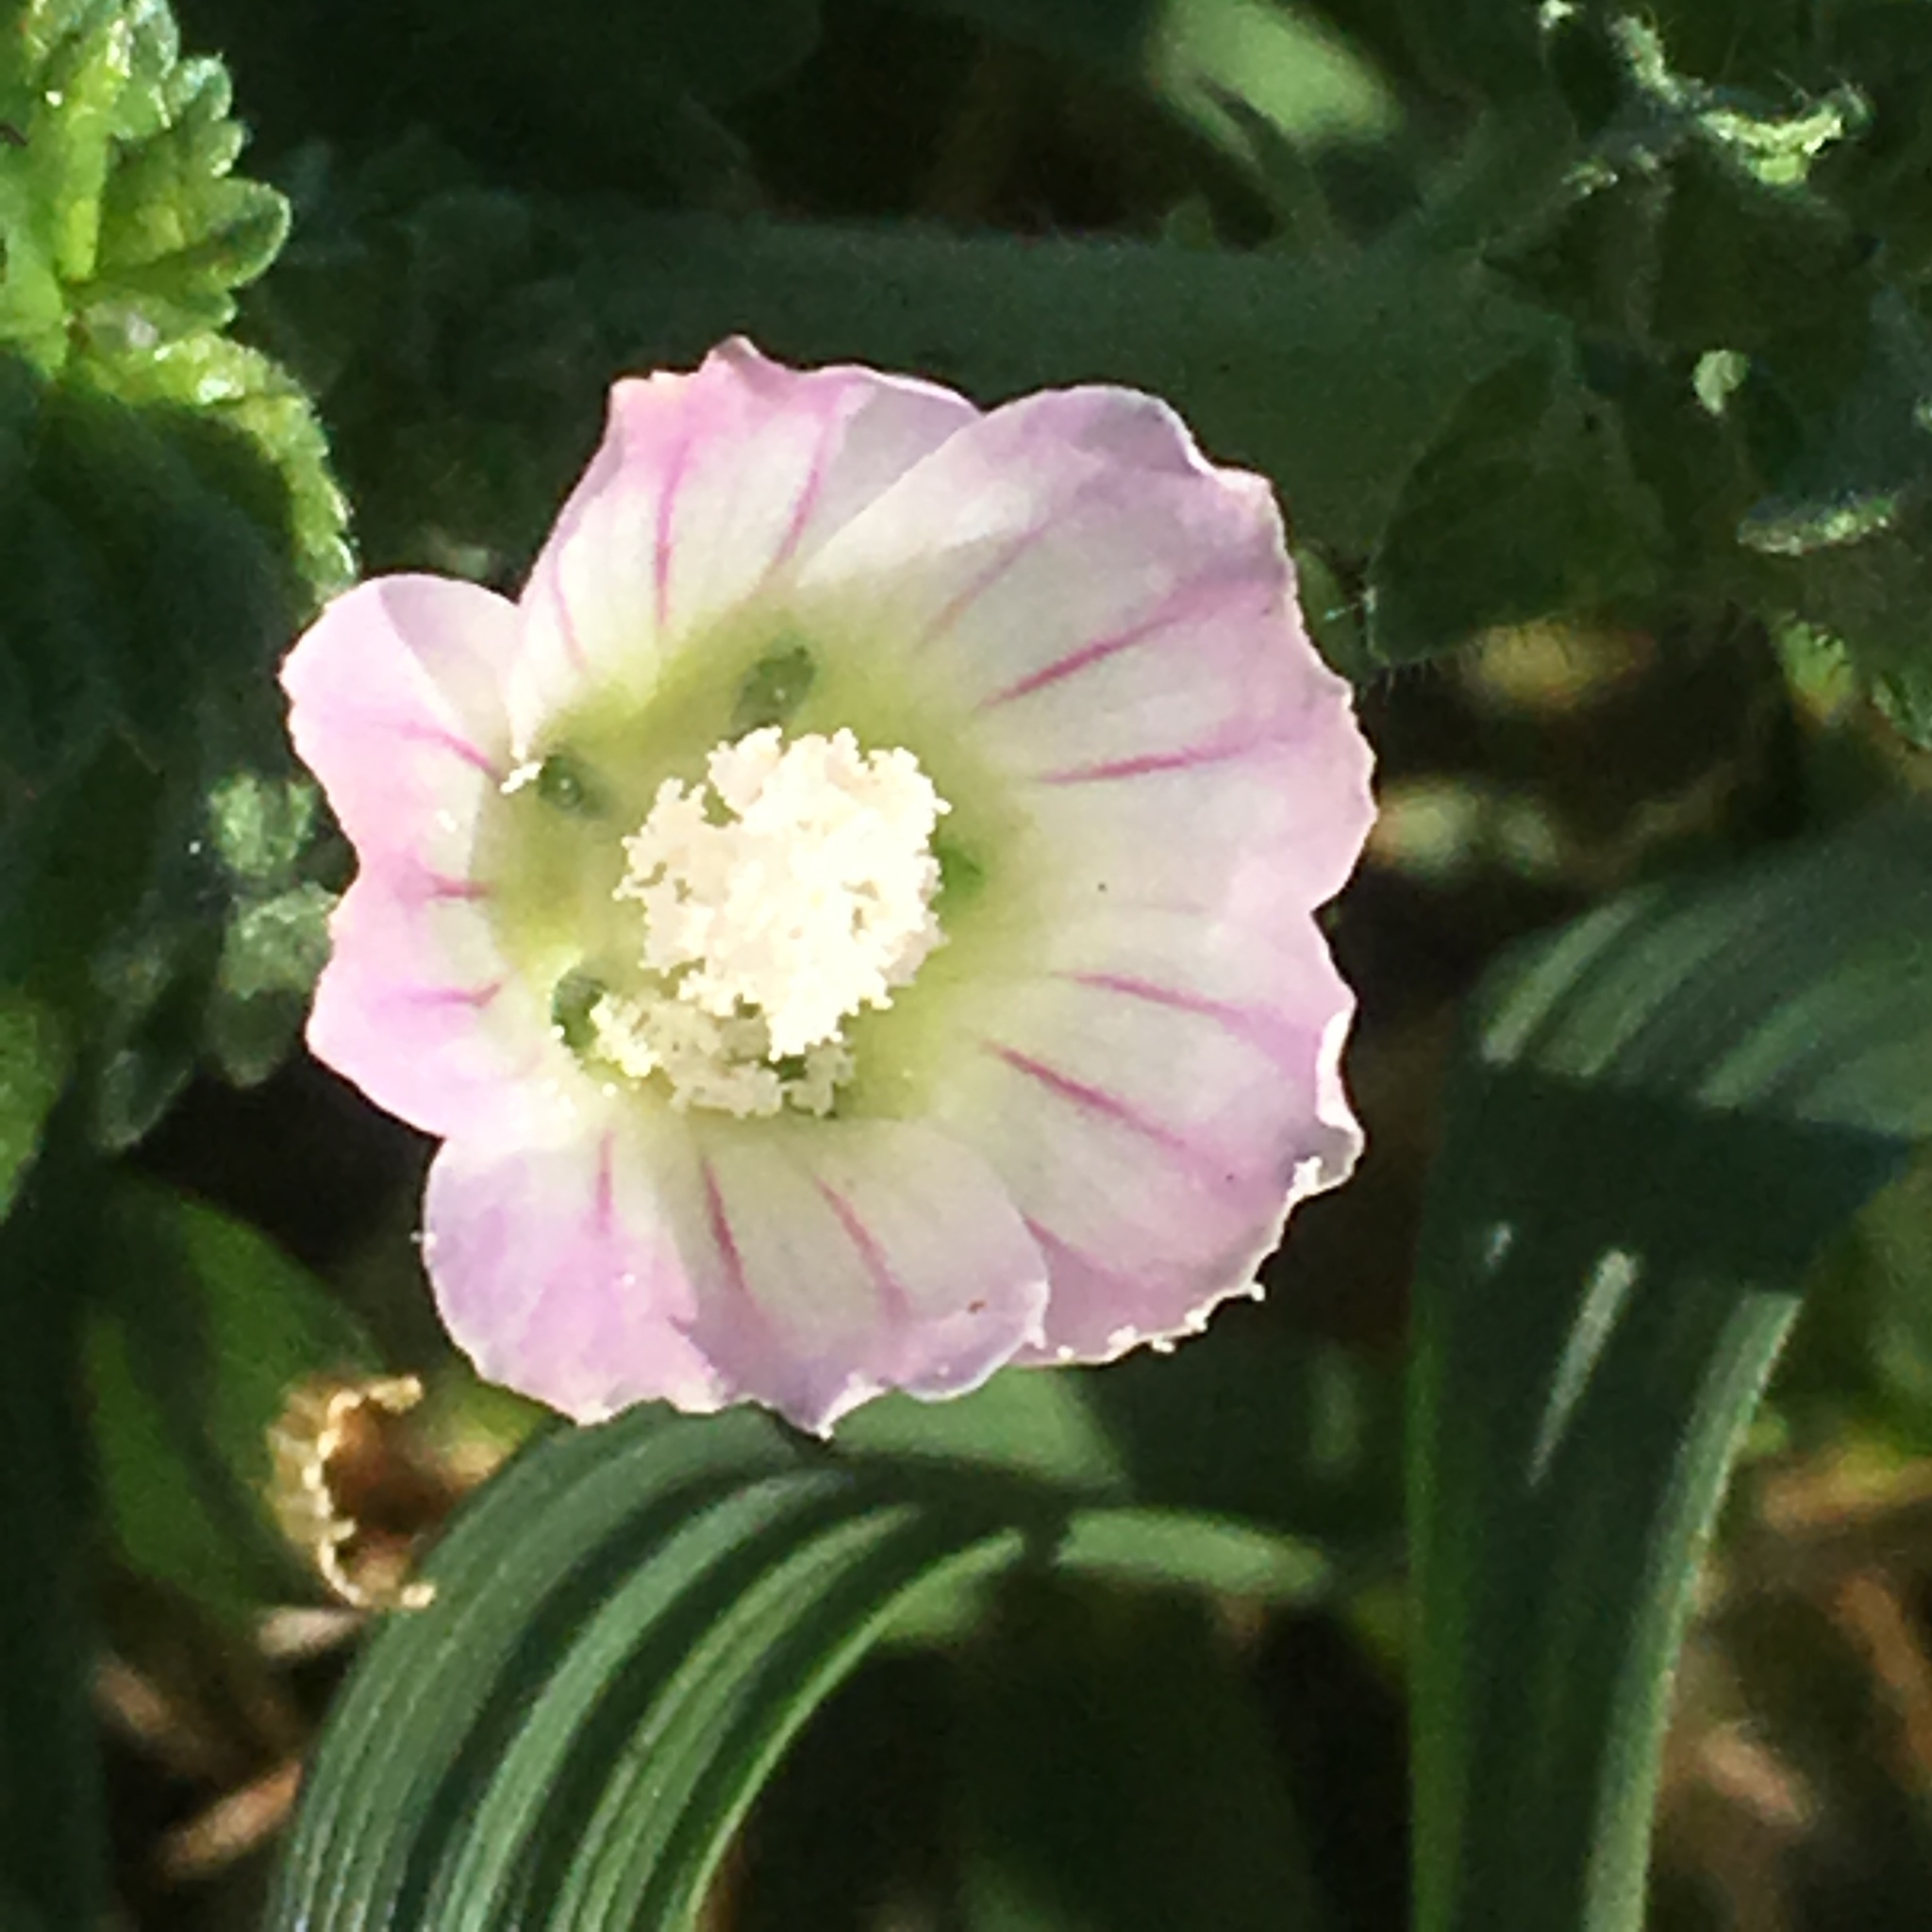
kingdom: Plantae
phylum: Tracheophyta
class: Magnoliopsida
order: Malvales
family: Malvaceae
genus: Malva
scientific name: Malva neglecta
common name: Common mallow
